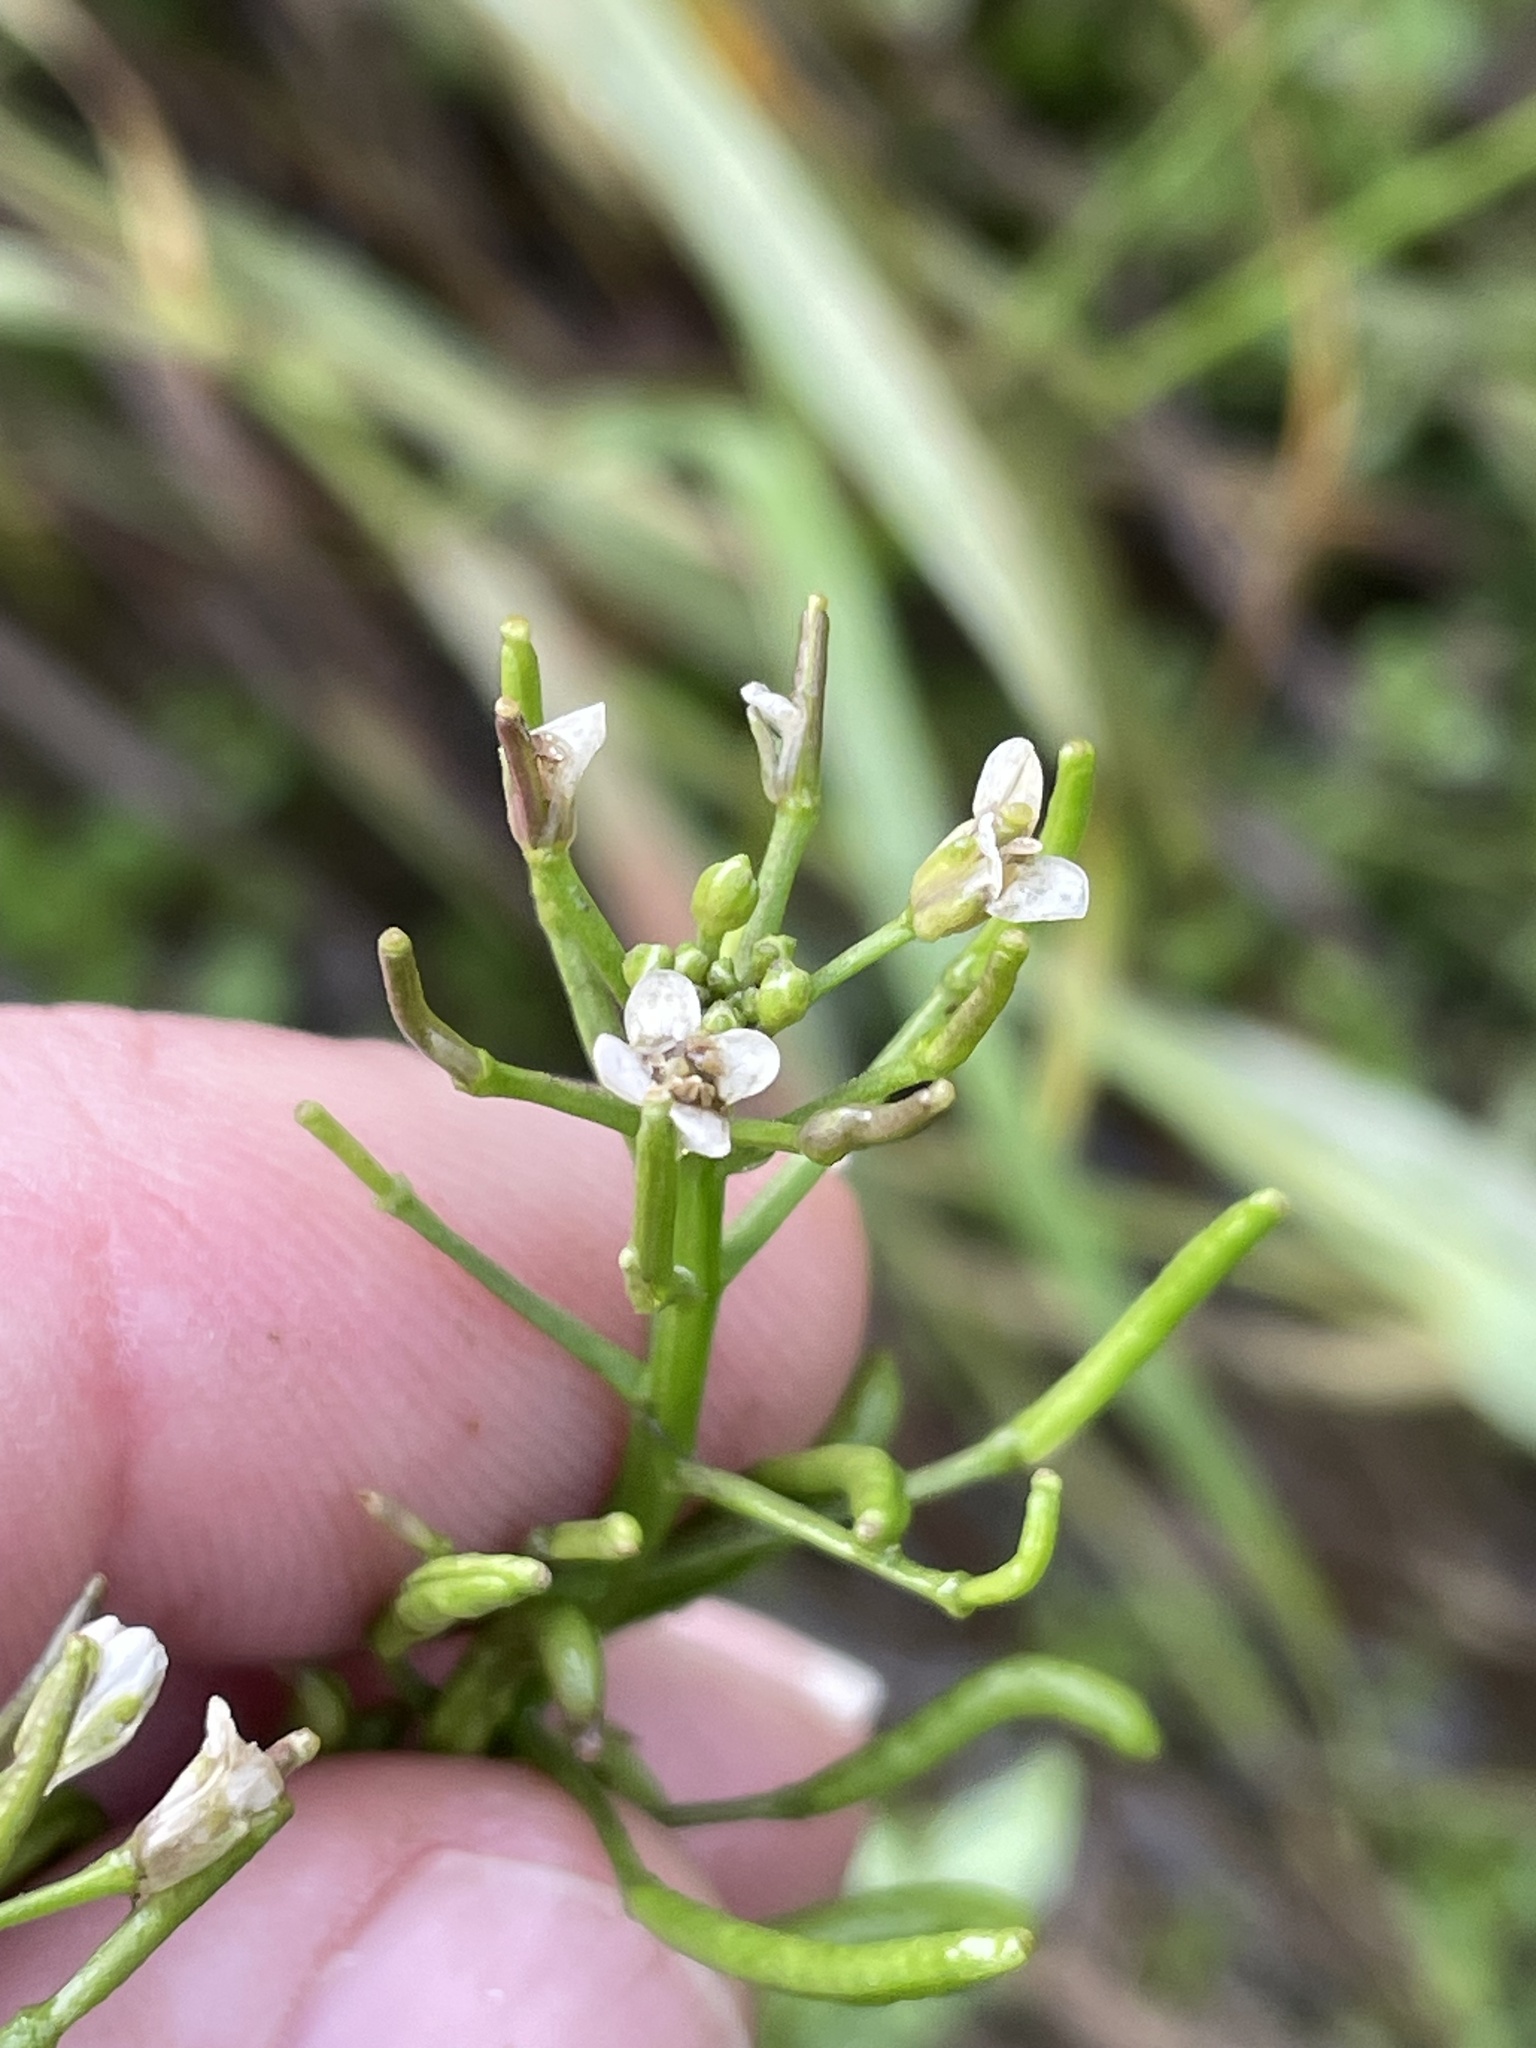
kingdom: Plantae
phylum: Tracheophyta
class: Magnoliopsida
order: Brassicales
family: Brassicaceae
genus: Nasturtium
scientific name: Nasturtium officinale
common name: Watercress
